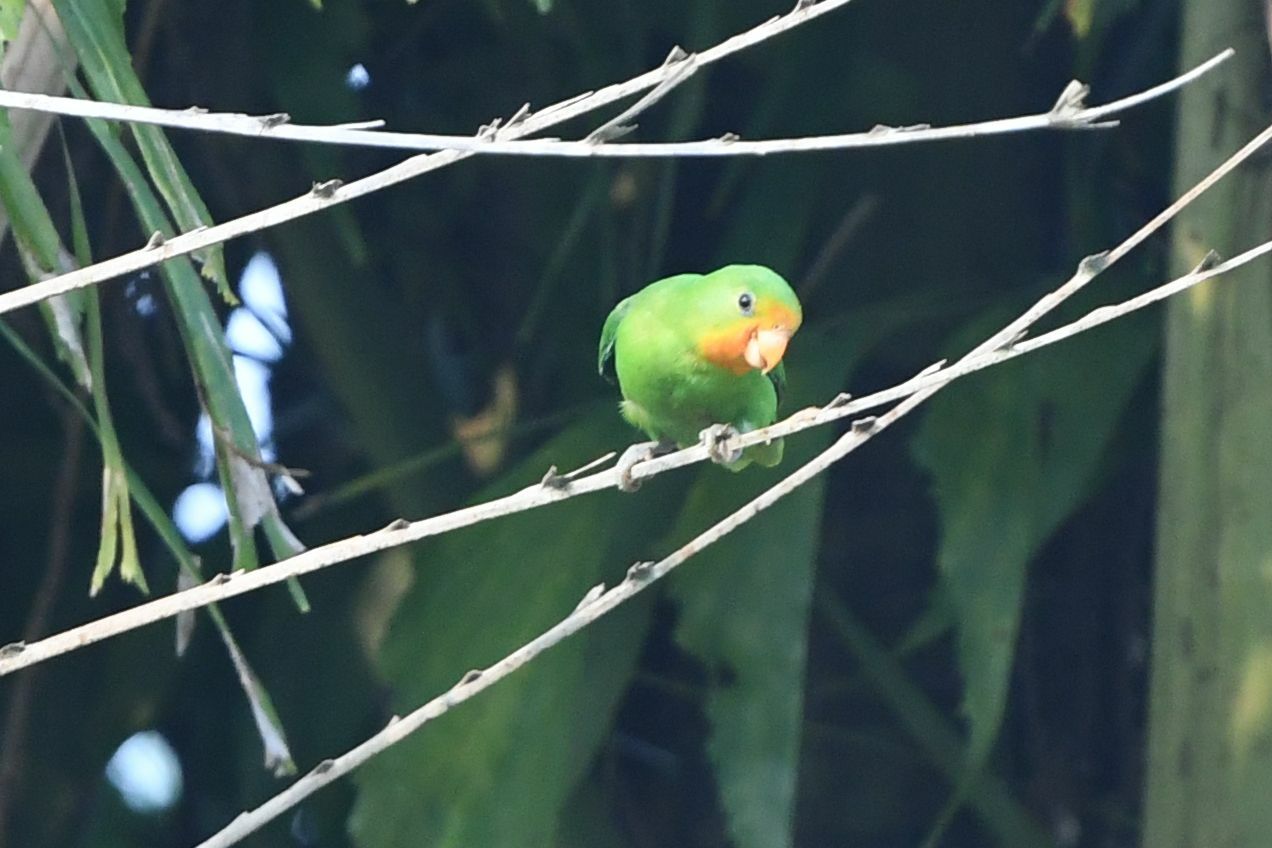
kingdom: Animalia
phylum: Chordata
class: Aves
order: Psittaciformes
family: Psittacidae
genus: Agapornis
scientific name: Agapornis pullarius
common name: Red-headed lovebird
